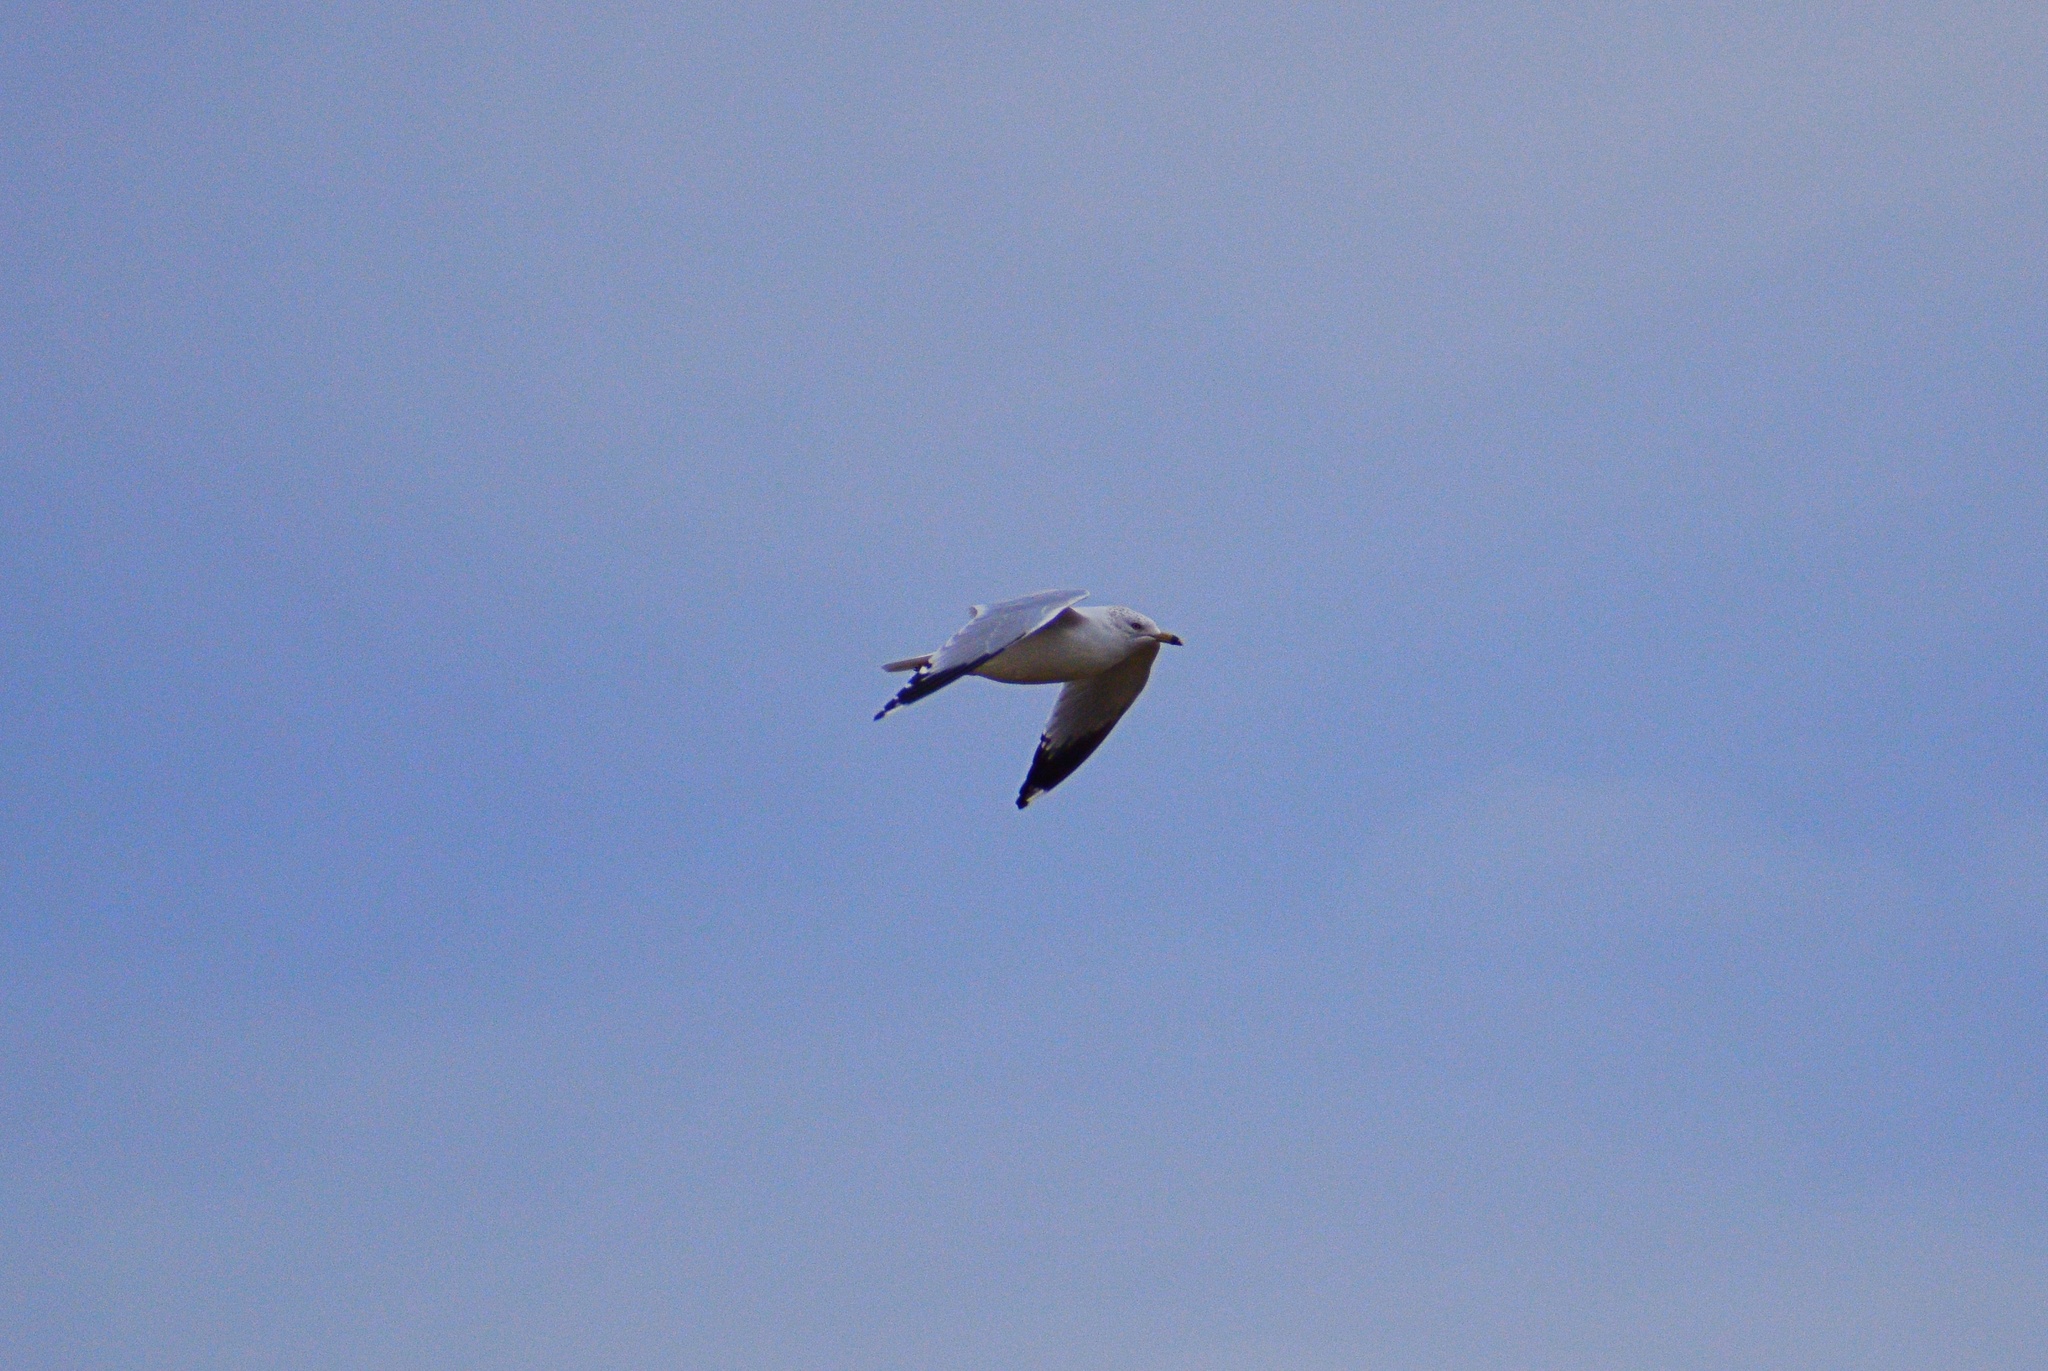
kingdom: Animalia
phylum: Chordata
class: Aves
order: Charadriiformes
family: Laridae
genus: Larus
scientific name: Larus delawarensis
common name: Ring-billed gull
